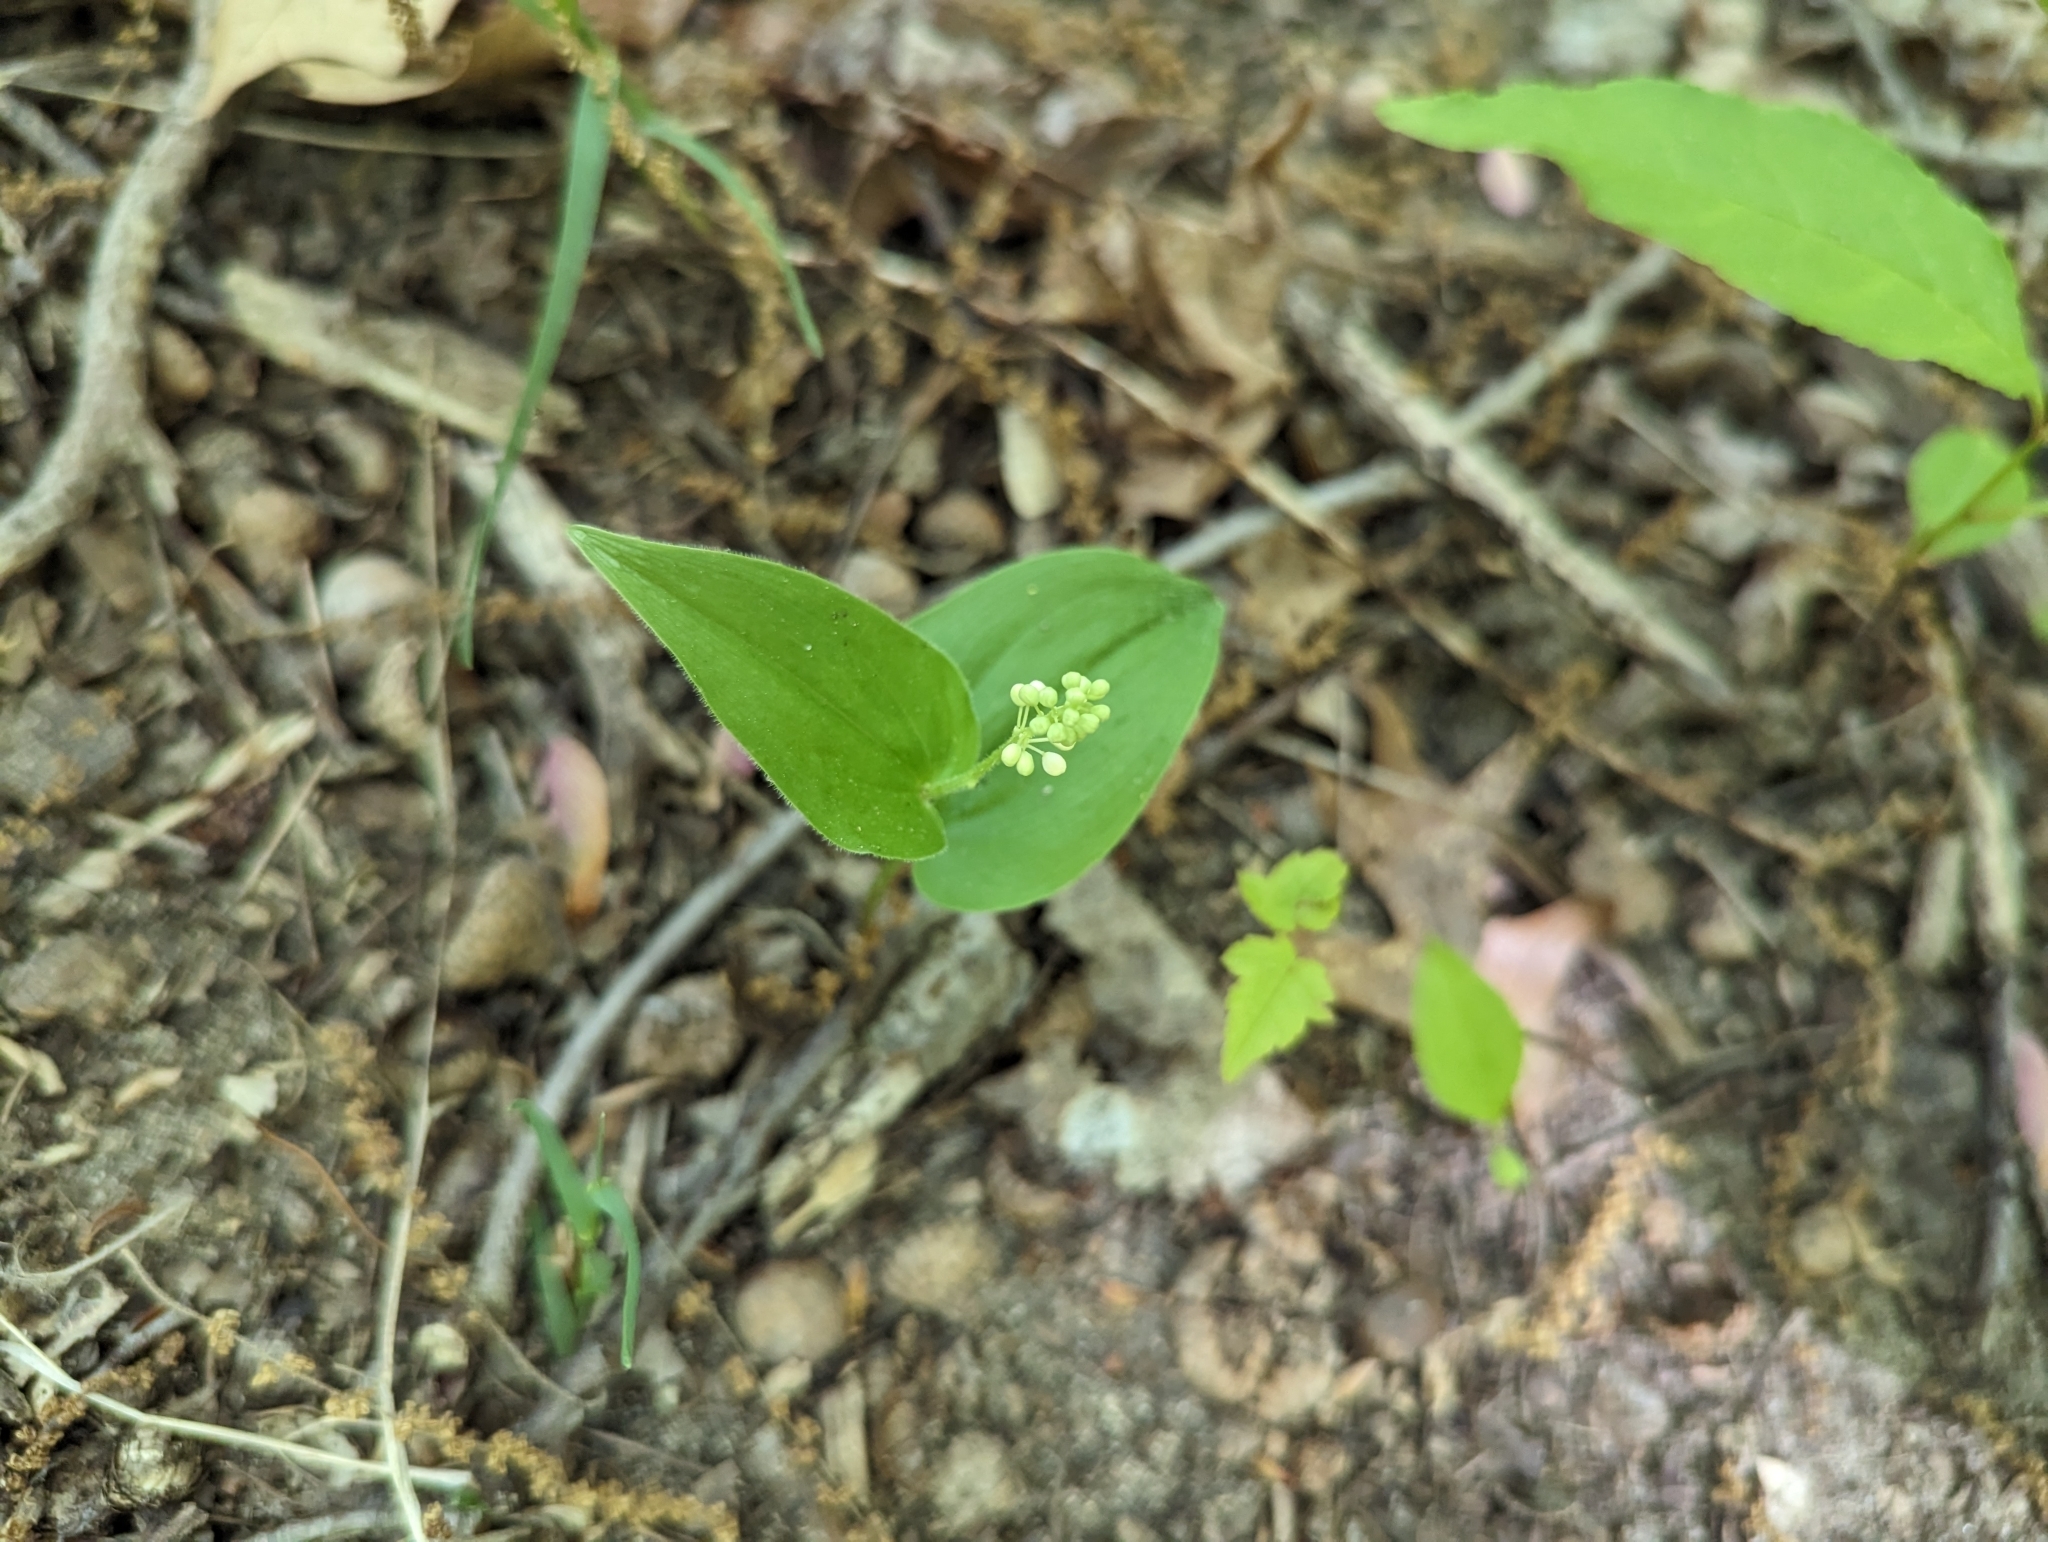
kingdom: Plantae
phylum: Tracheophyta
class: Liliopsida
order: Asparagales
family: Asparagaceae
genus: Maianthemum
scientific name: Maianthemum canadense
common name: False lily-of-the-valley
